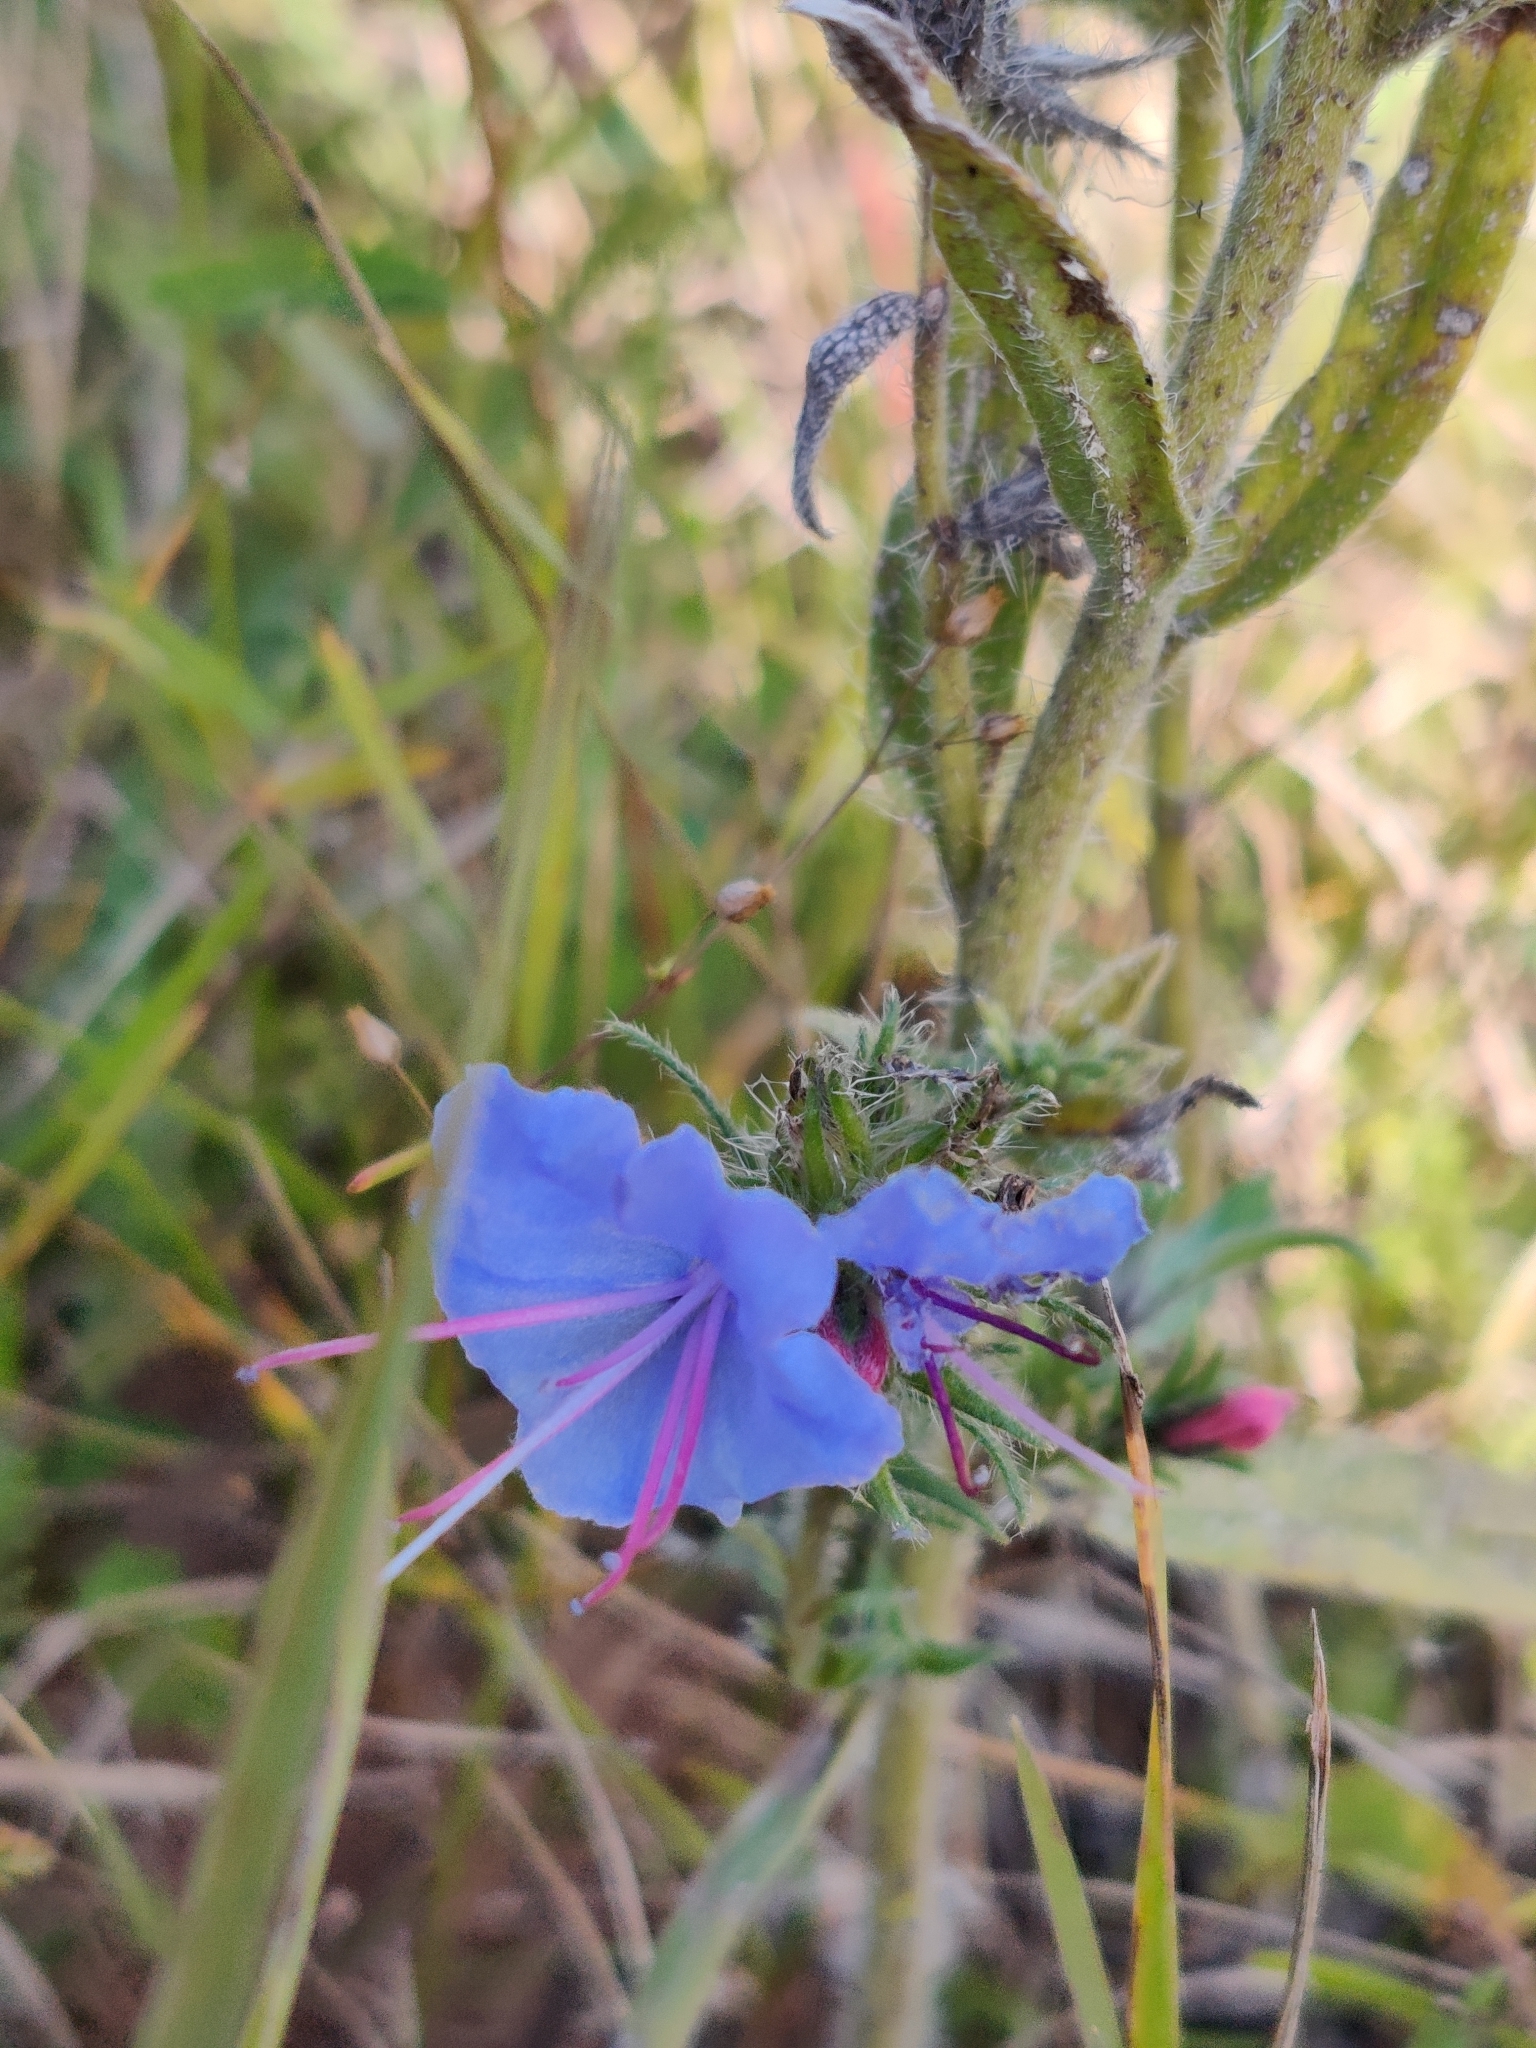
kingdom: Plantae
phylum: Tracheophyta
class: Magnoliopsida
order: Boraginales
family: Boraginaceae
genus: Echium
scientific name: Echium vulgare
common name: Common viper's bugloss
